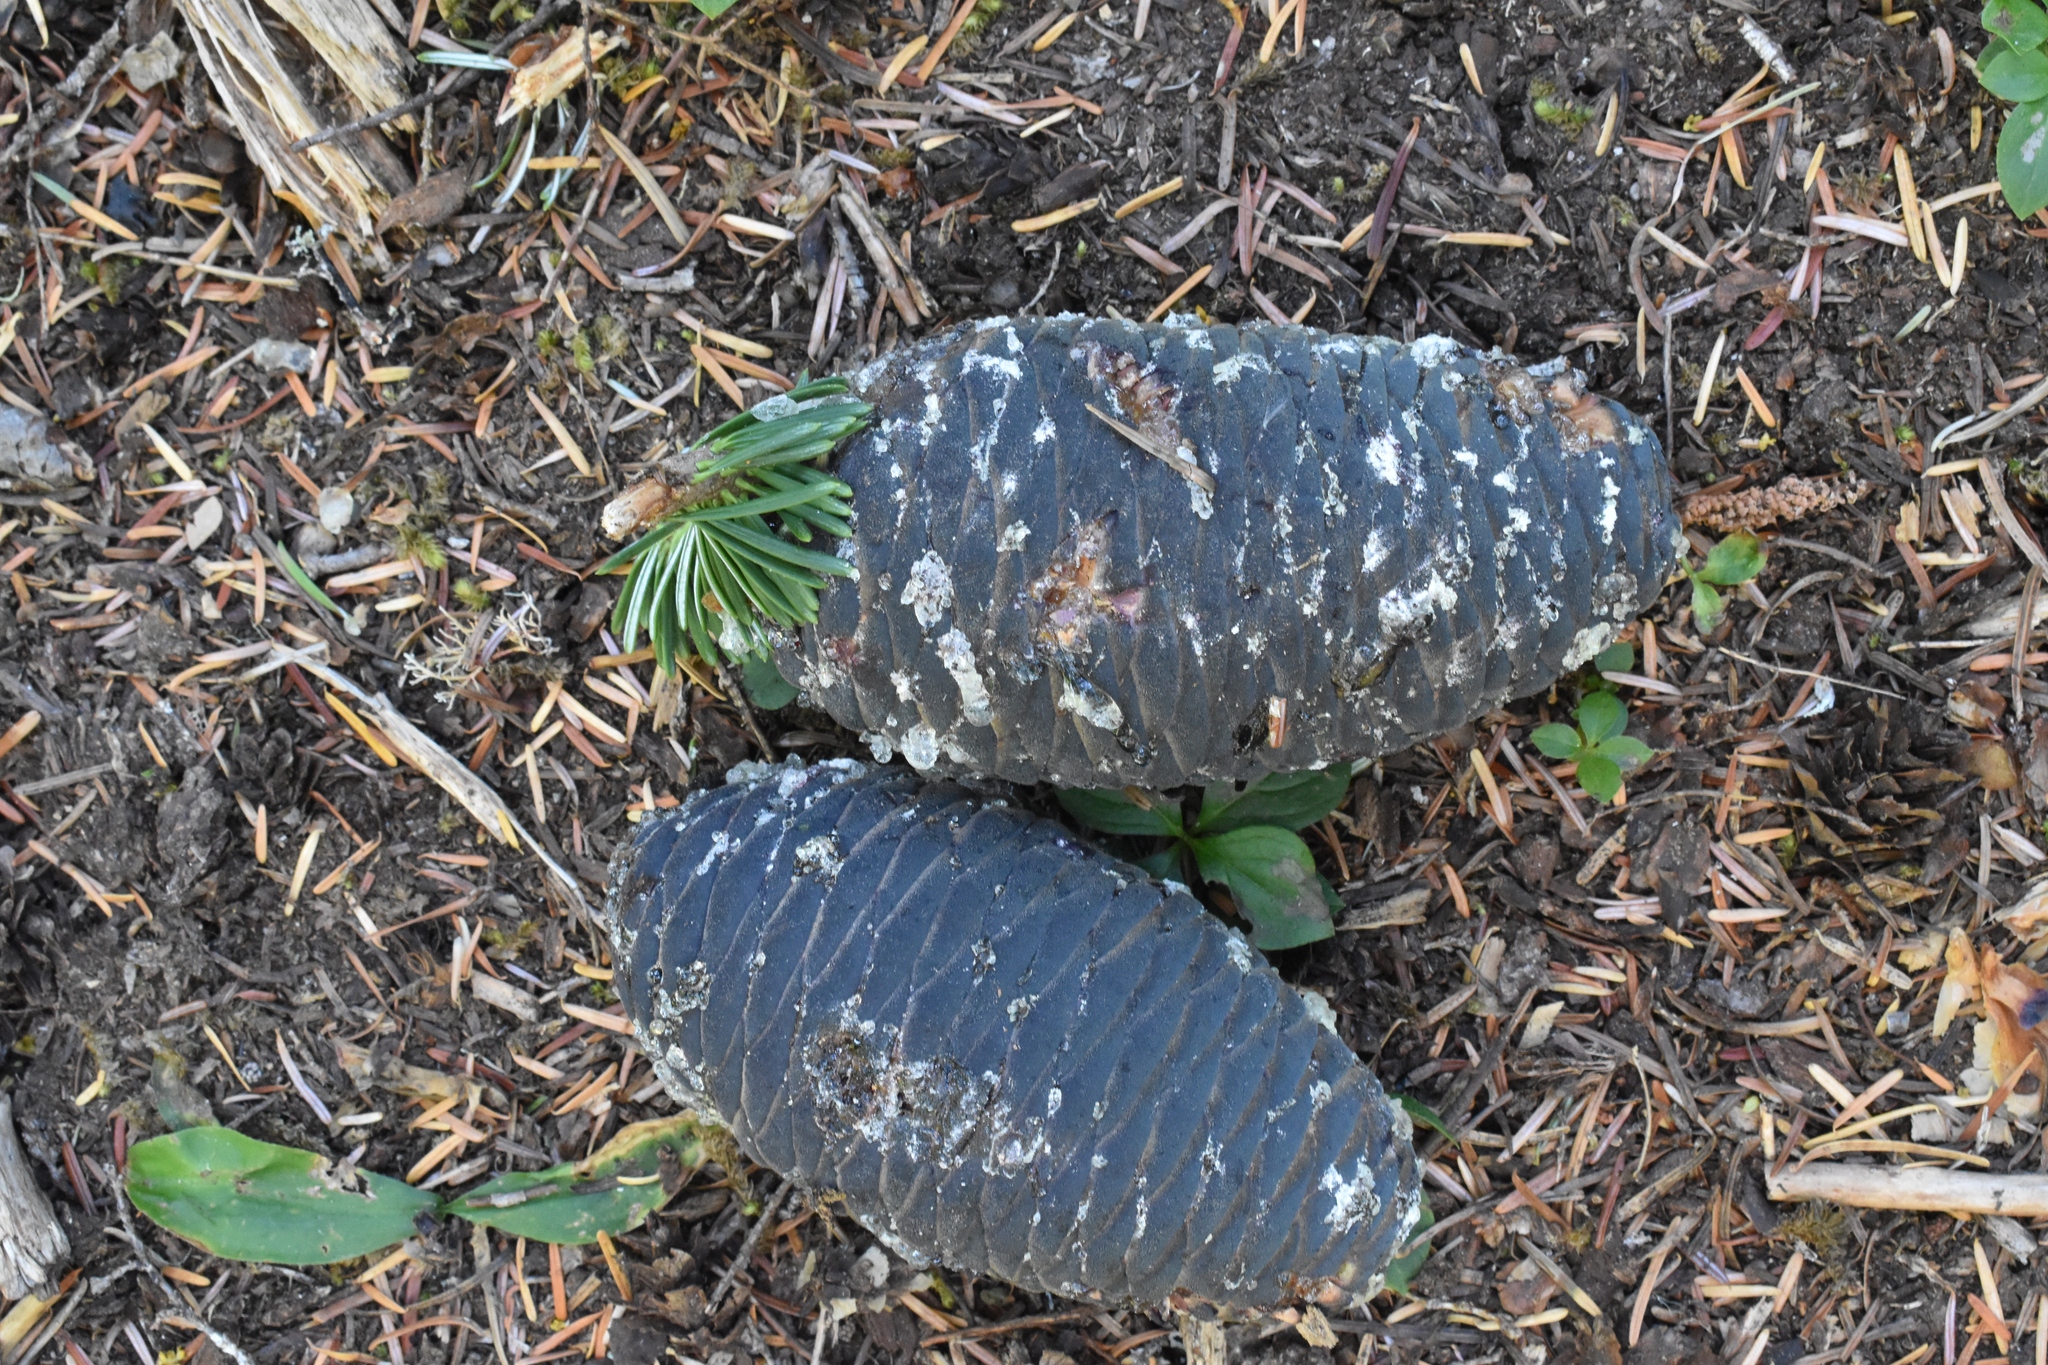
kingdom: Plantae
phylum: Tracheophyta
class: Pinopsida
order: Pinales
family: Pinaceae
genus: Abies
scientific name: Abies amabilis
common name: Pacific silver fir
